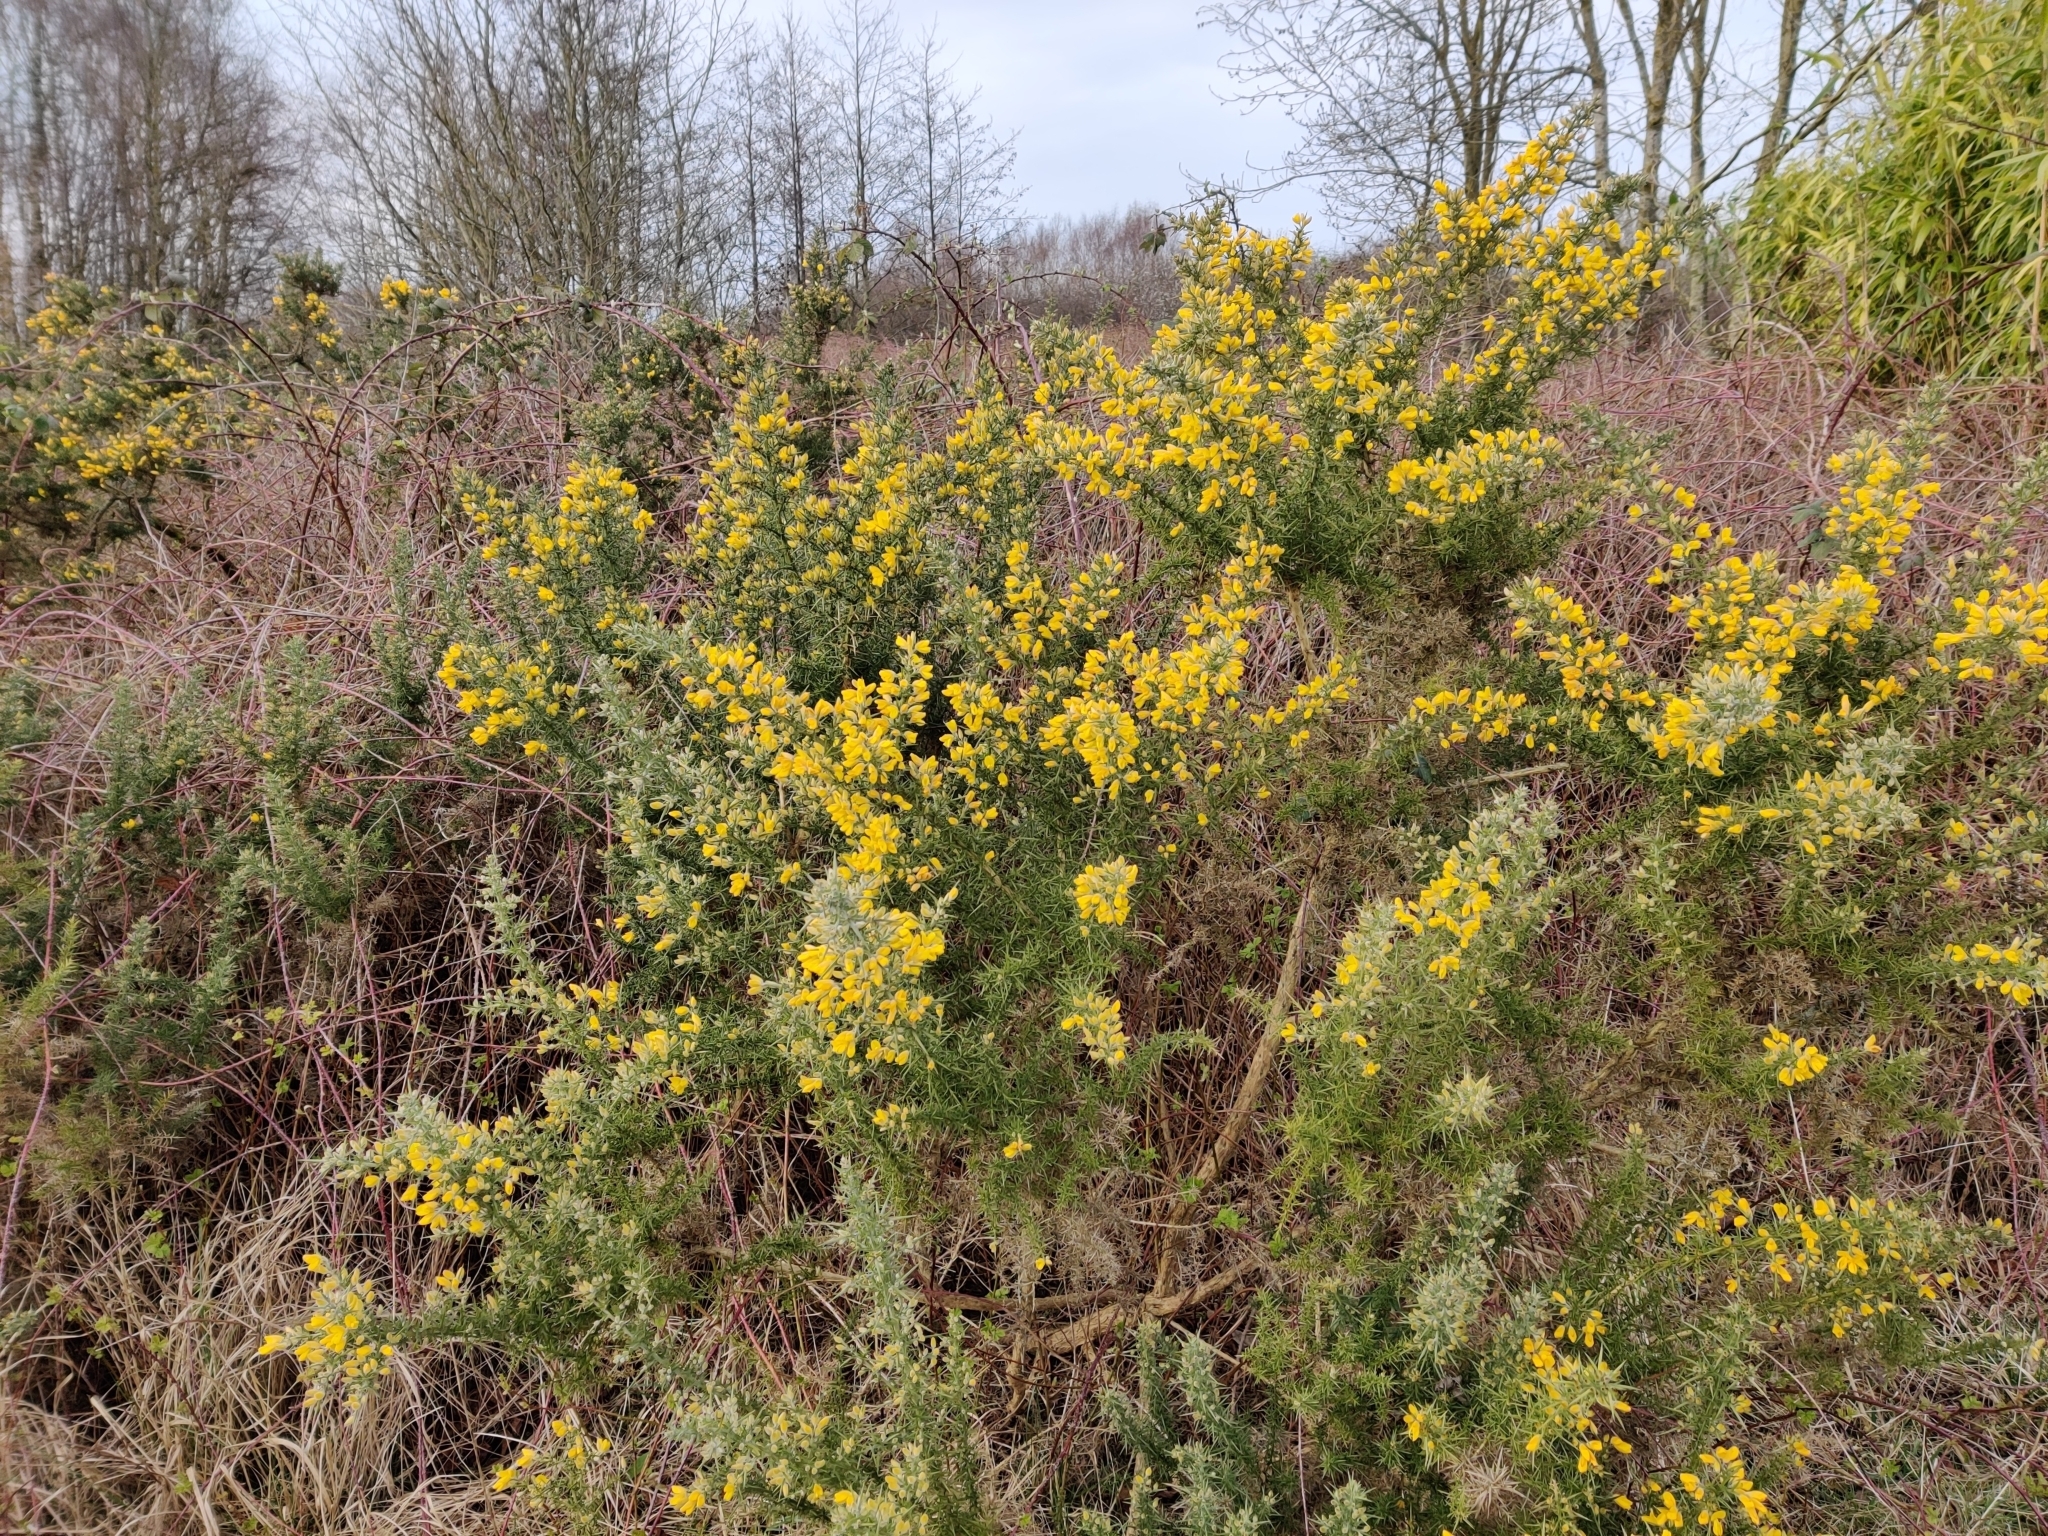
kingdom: Plantae
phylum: Tracheophyta
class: Magnoliopsida
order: Fabales
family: Fabaceae
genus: Ulex
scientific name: Ulex europaeus
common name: Common gorse
